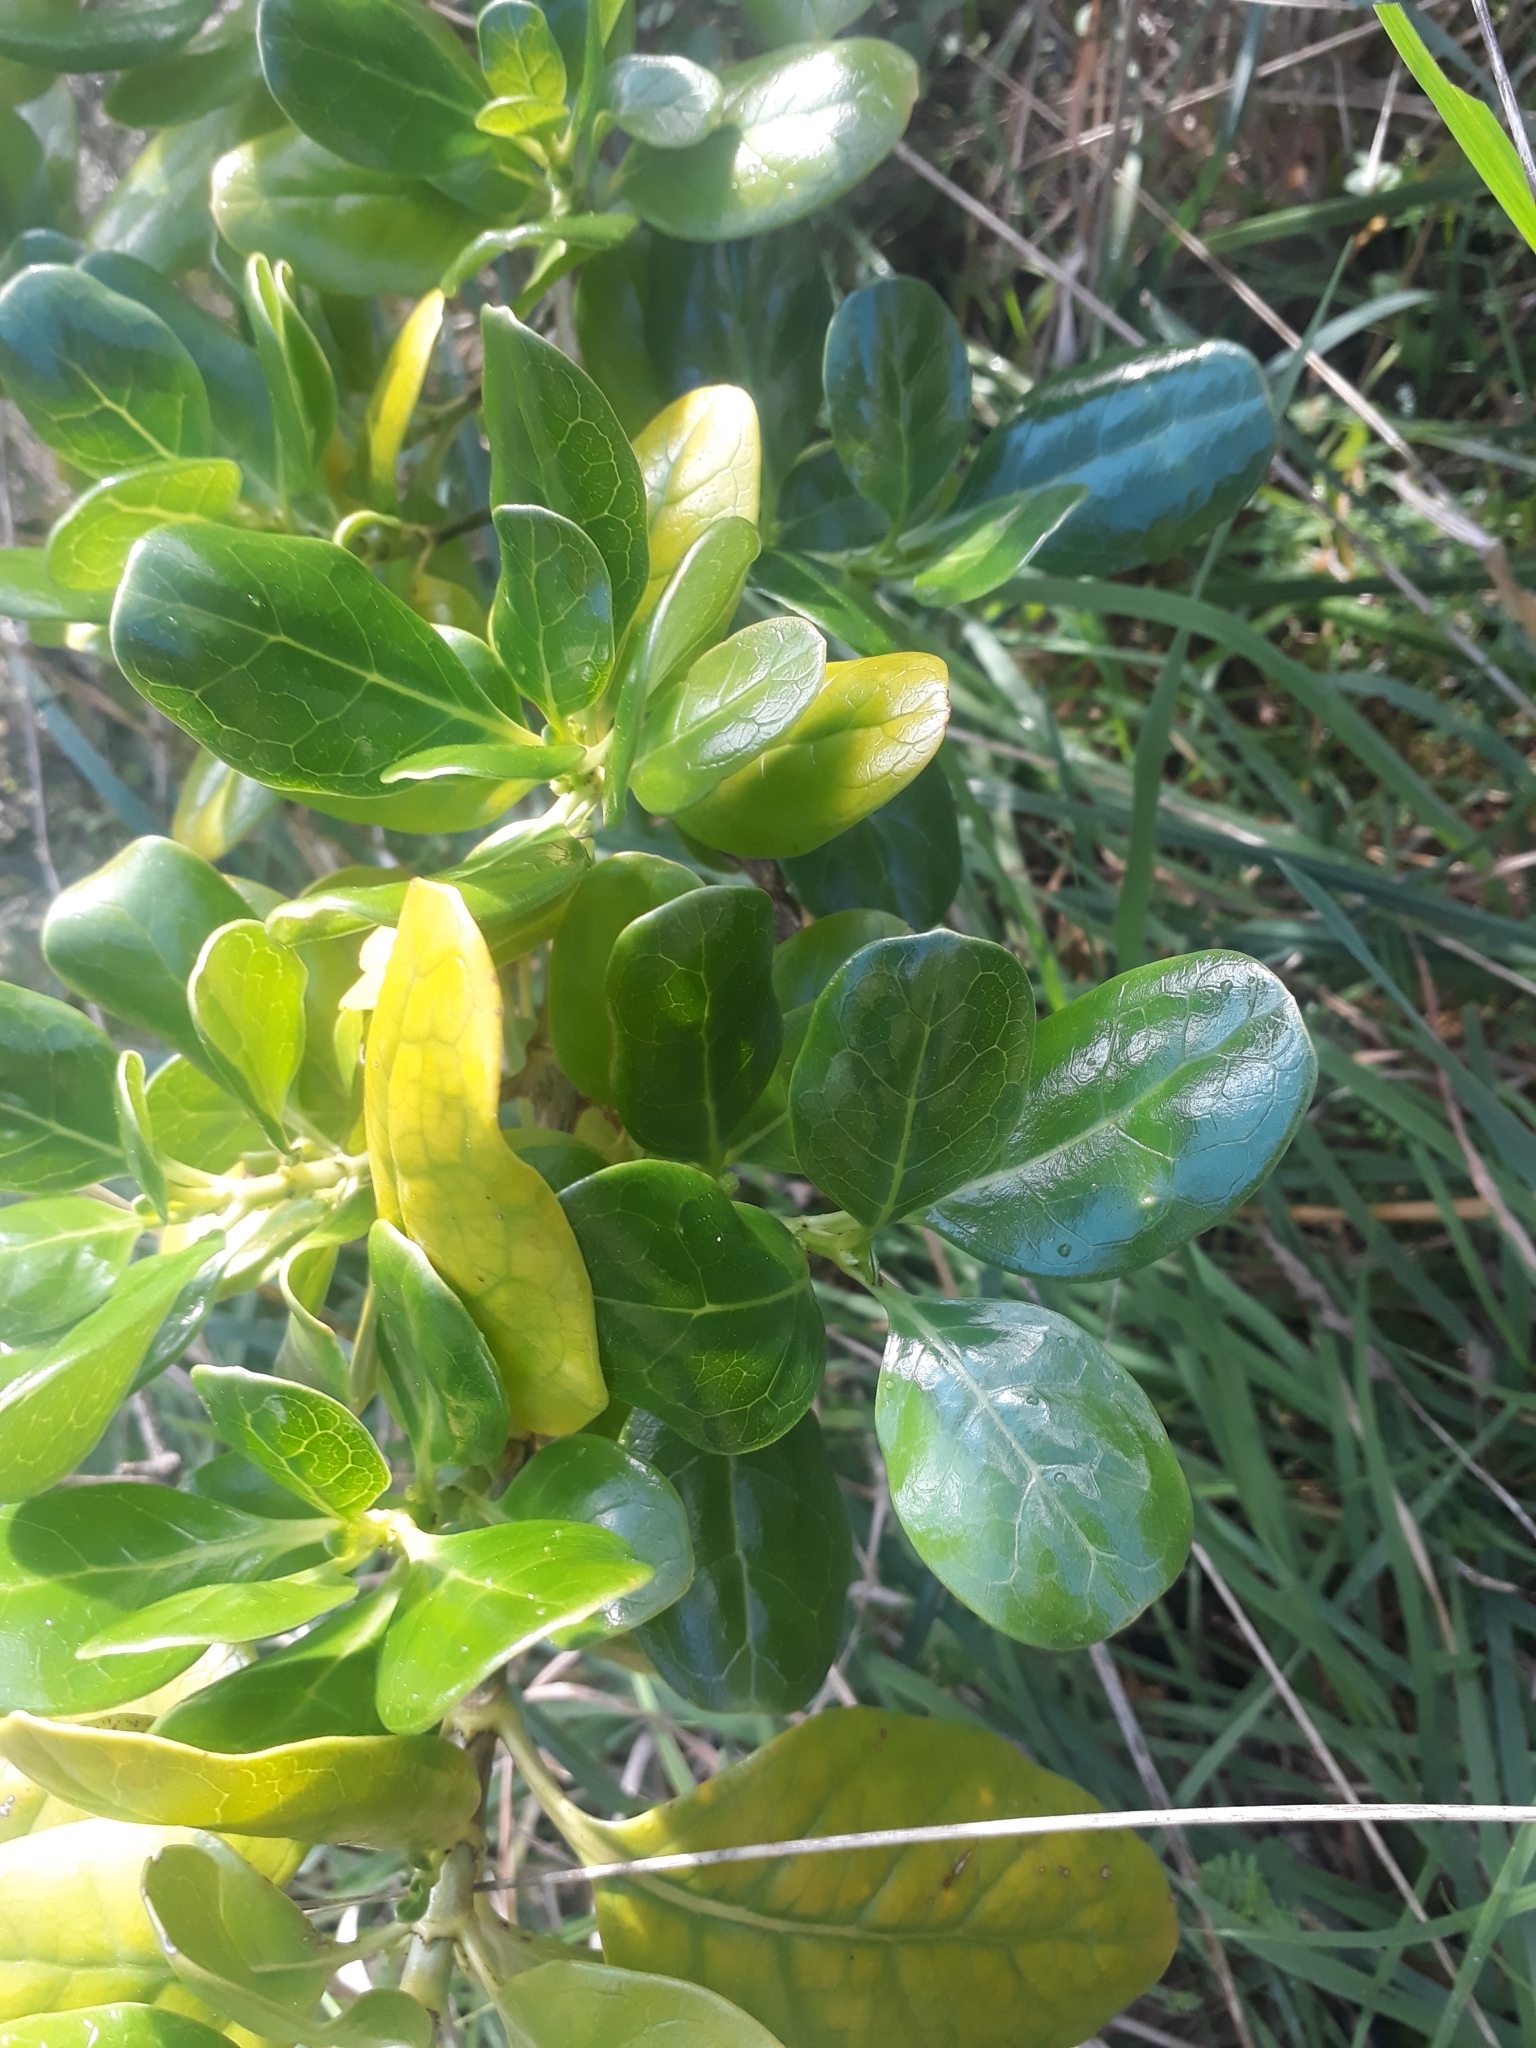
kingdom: Plantae
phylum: Tracheophyta
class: Magnoliopsida
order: Gentianales
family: Rubiaceae
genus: Coprosma
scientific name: Coprosma repens
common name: Tree bedstraw
